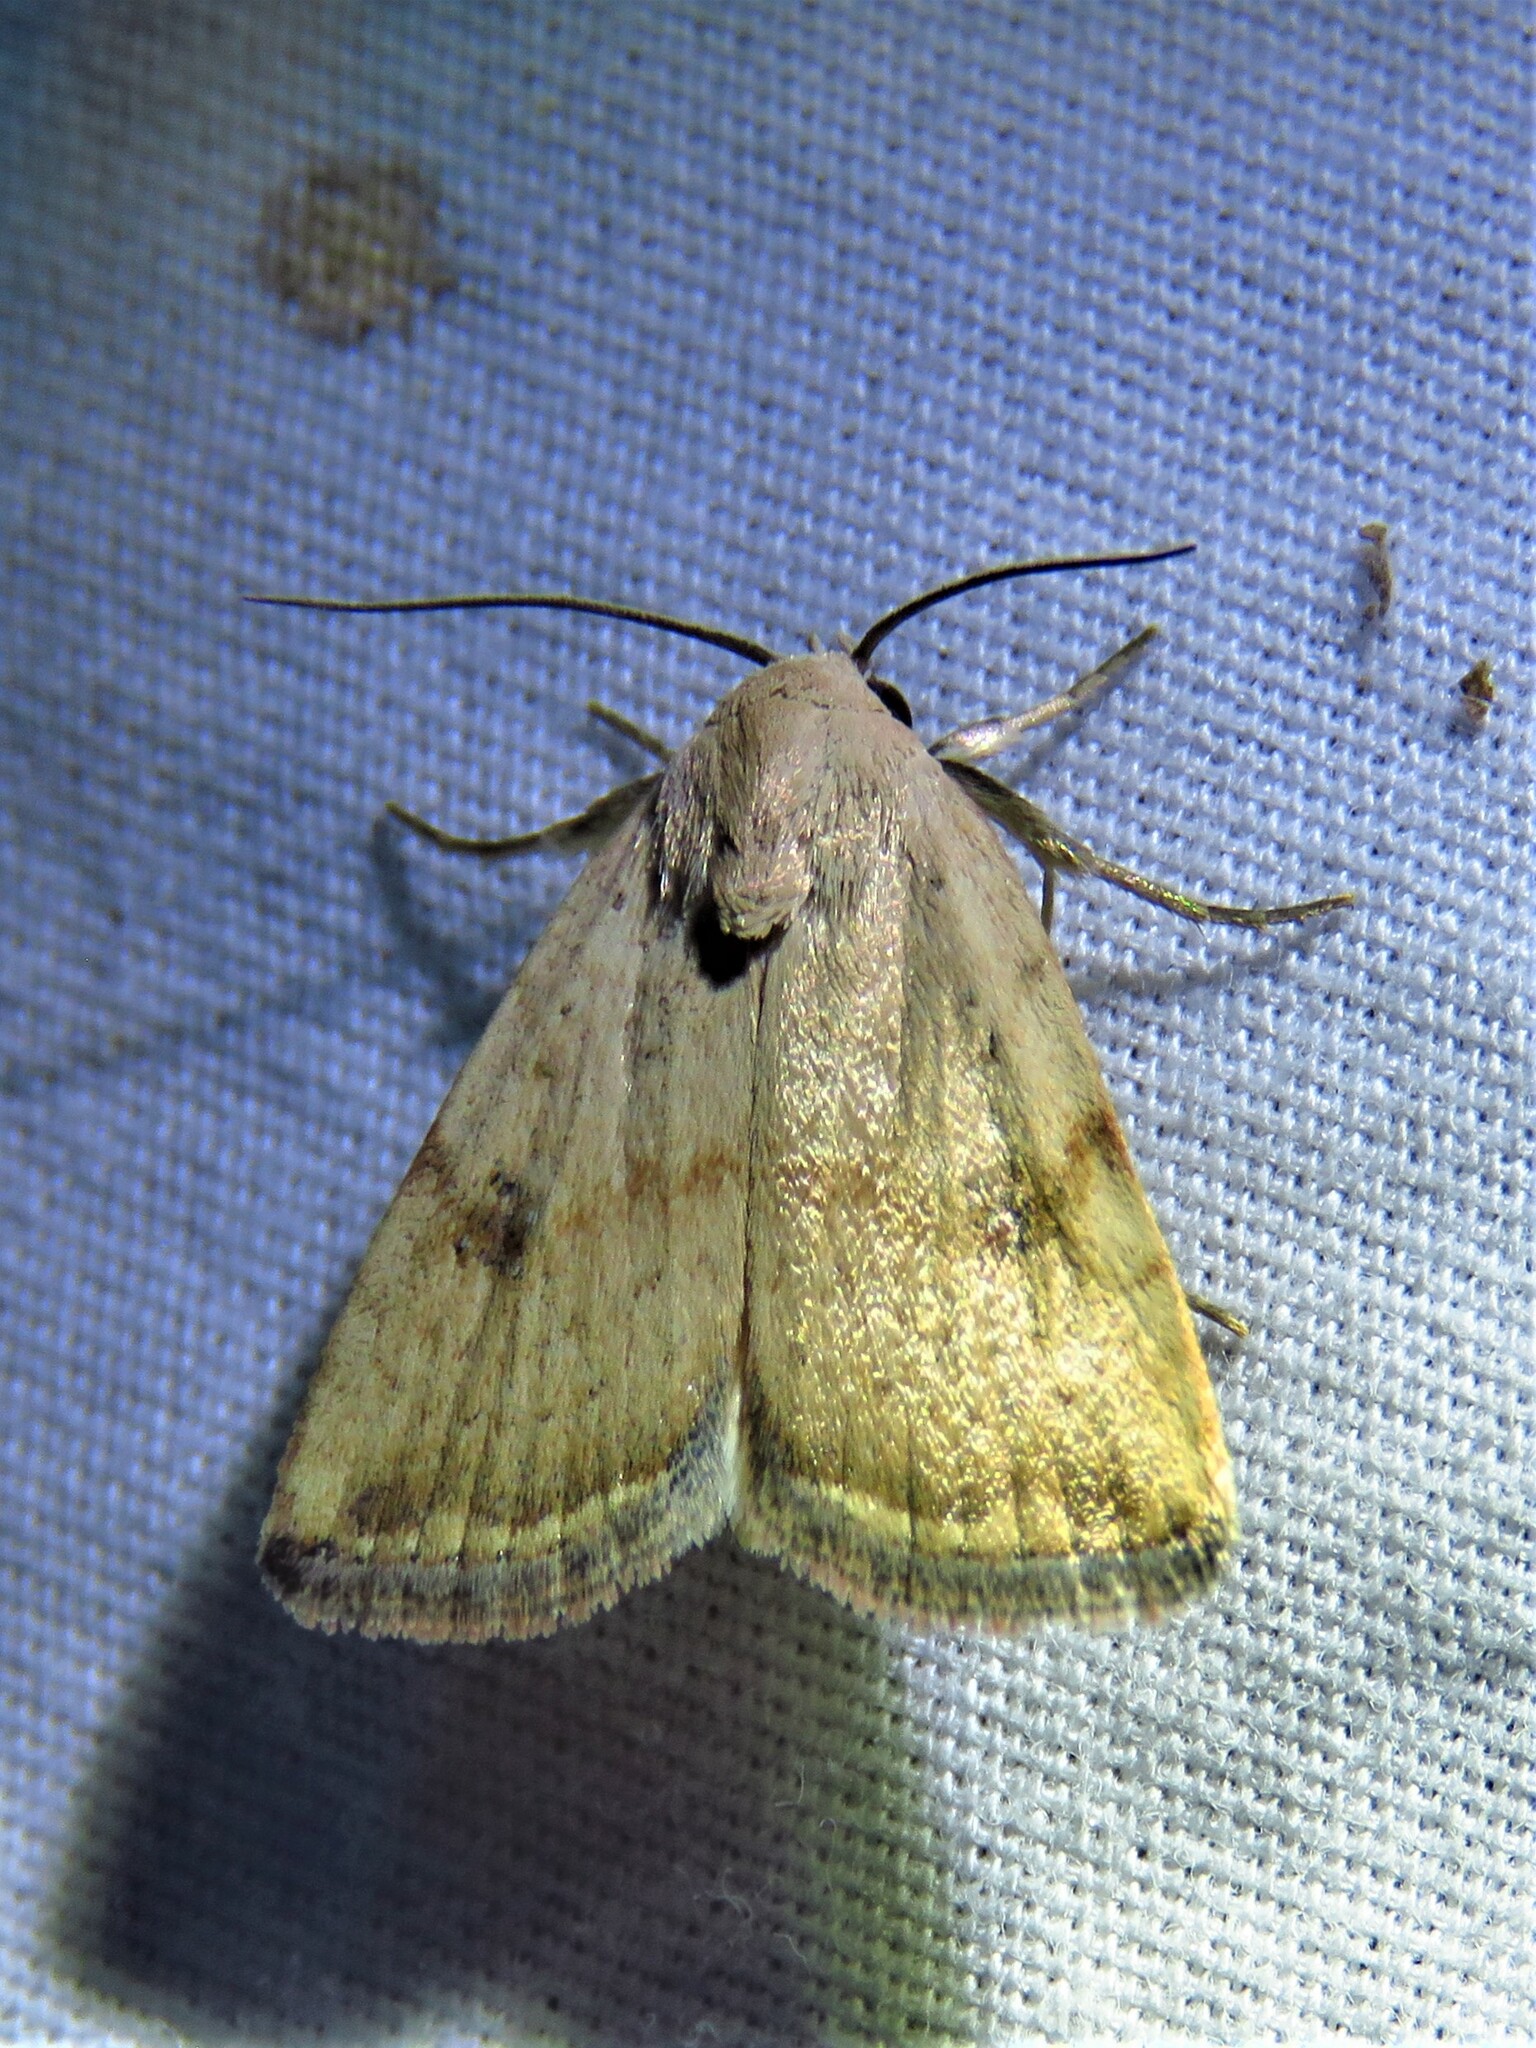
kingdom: Animalia
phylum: Arthropoda
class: Insecta
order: Lepidoptera
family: Noctuidae
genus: Micrathetis
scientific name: Micrathetis triplex
